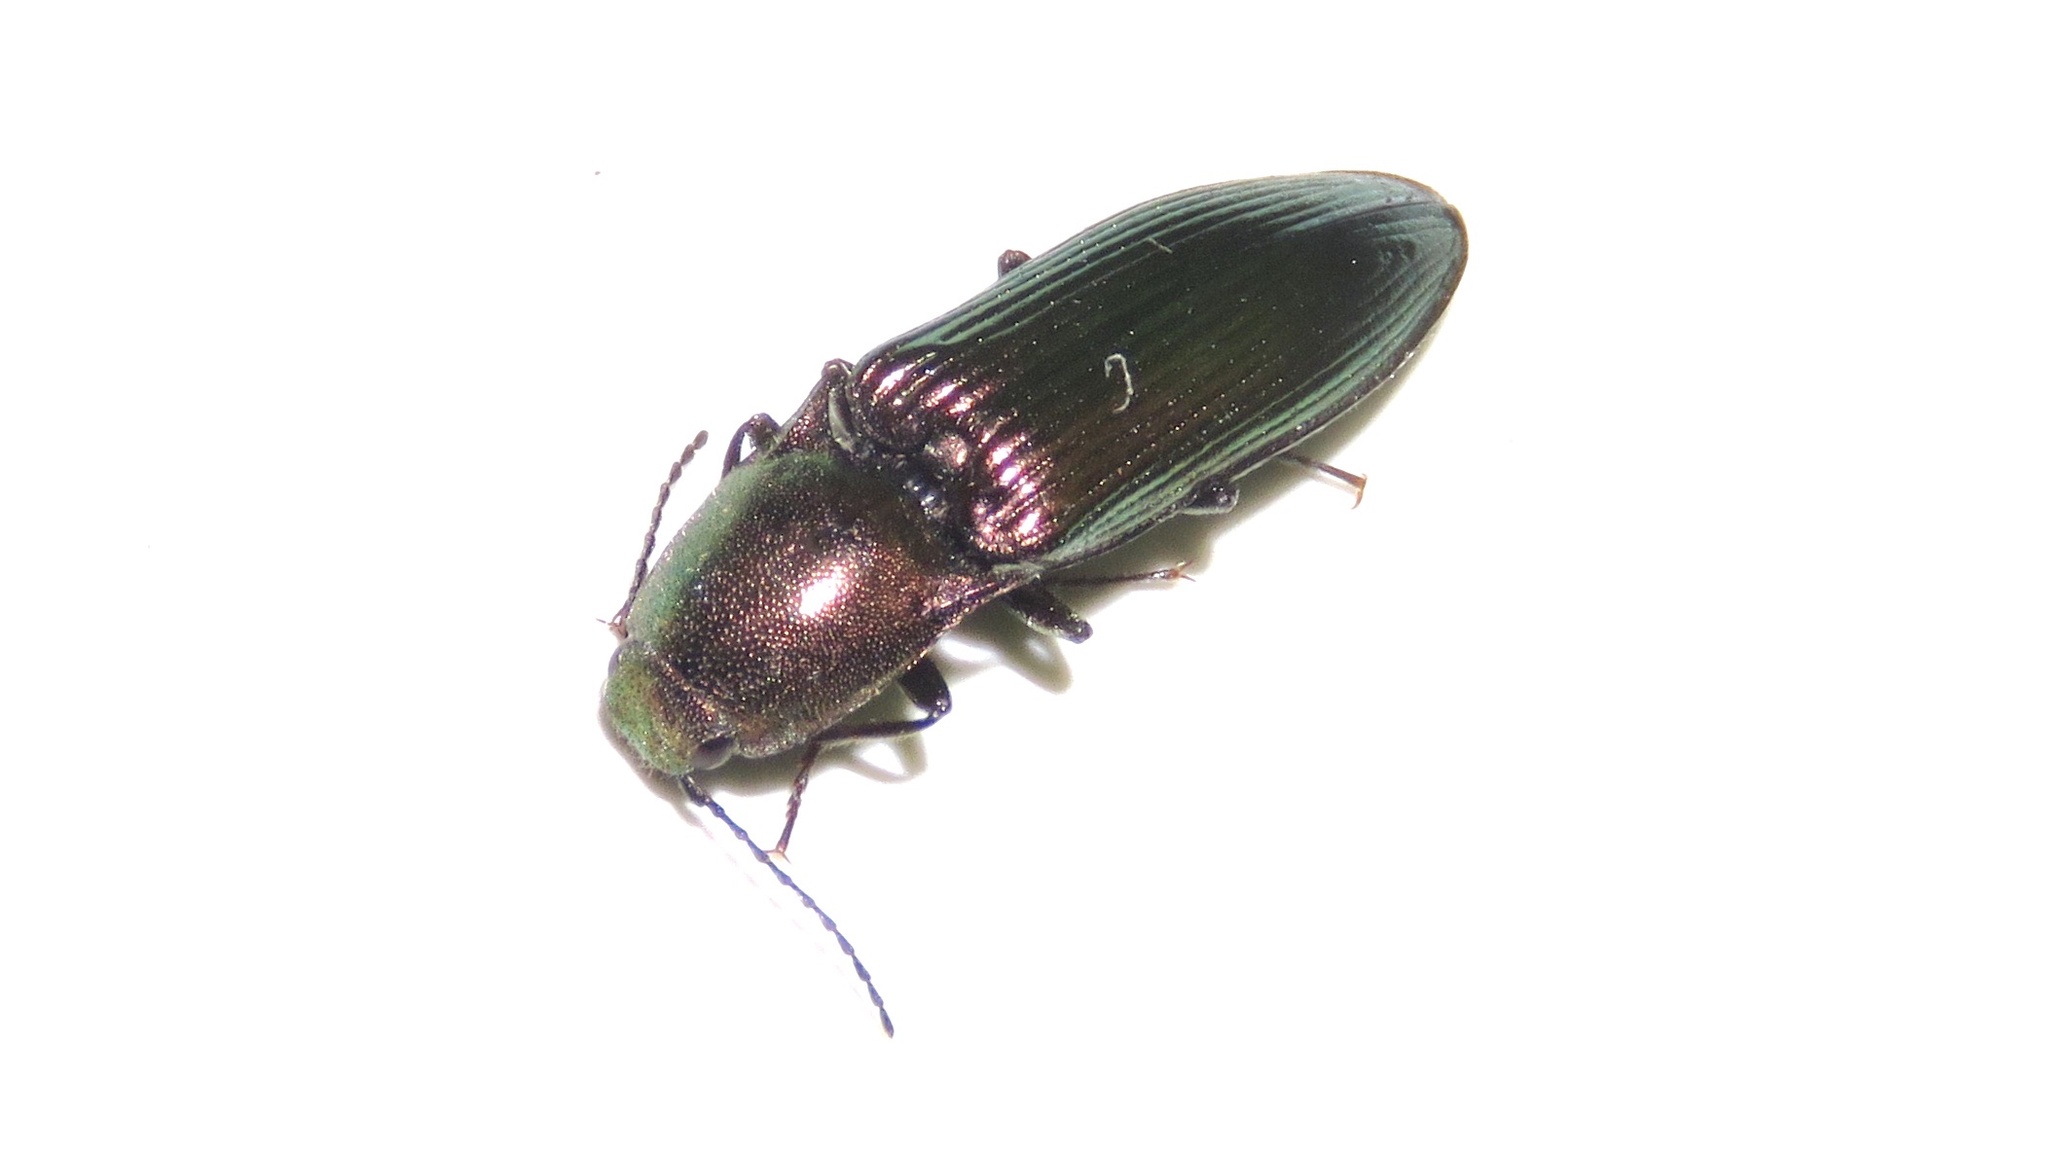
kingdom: Animalia
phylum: Arthropoda
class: Insecta
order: Coleoptera
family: Elateridae
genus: Nitidolimonius
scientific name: Nitidolimonius resplendens
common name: Resplendent click beetle
